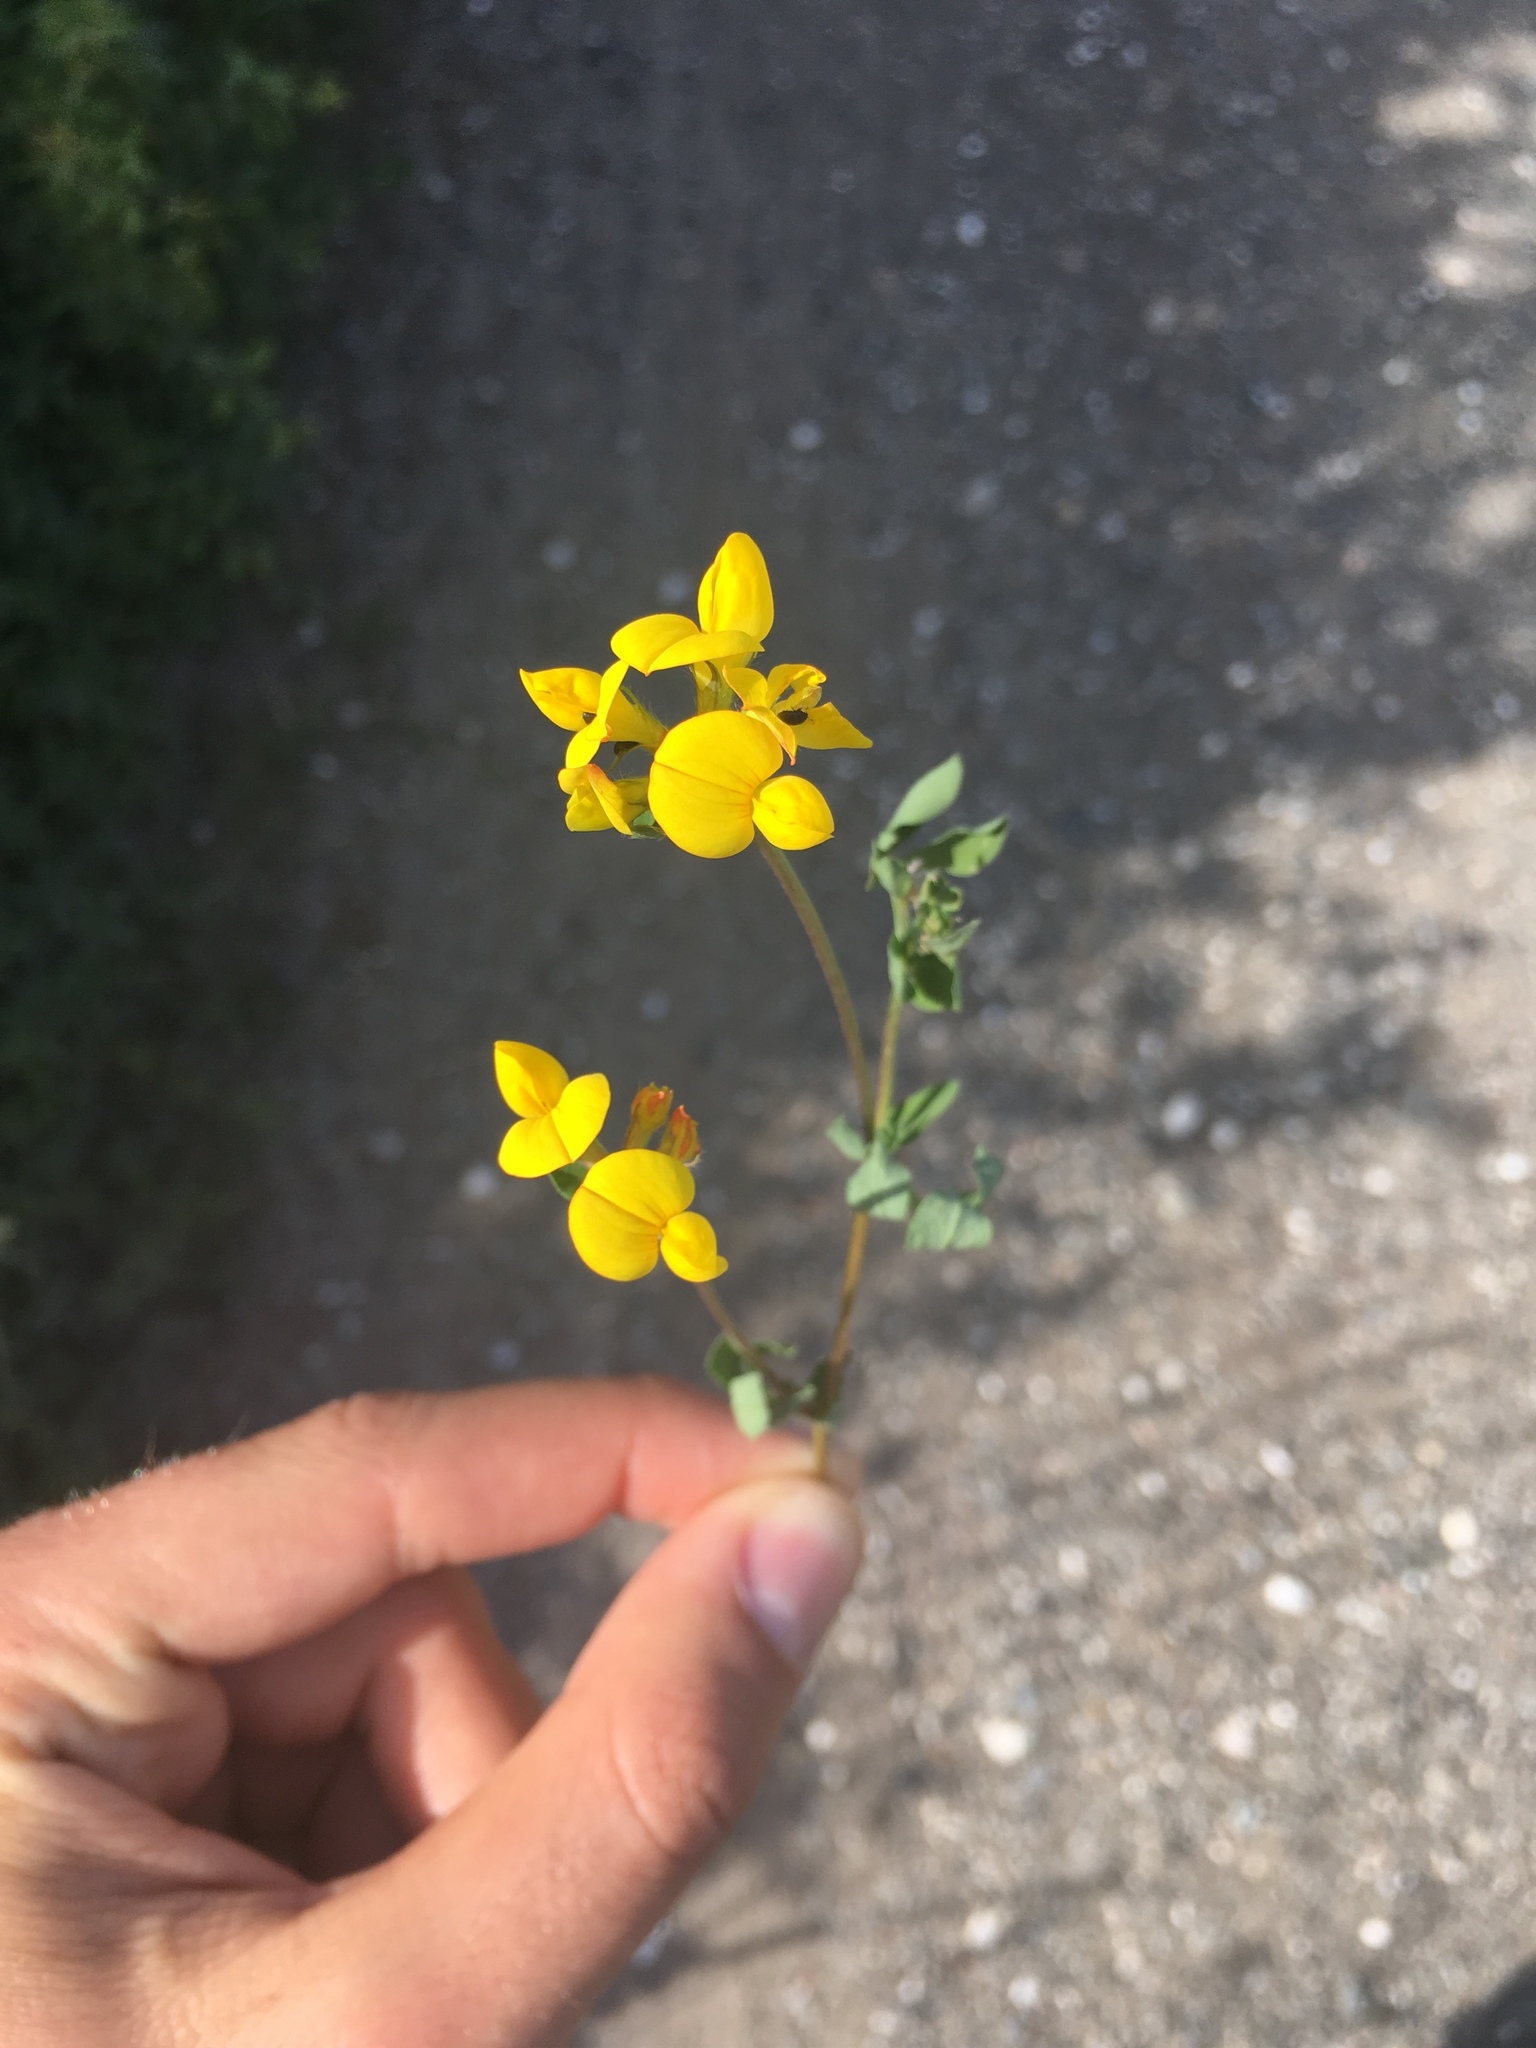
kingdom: Plantae
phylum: Tracheophyta
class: Magnoliopsida
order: Fabales
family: Fabaceae
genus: Lotus
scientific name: Lotus corniculatus
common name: Common bird's-foot-trefoil
